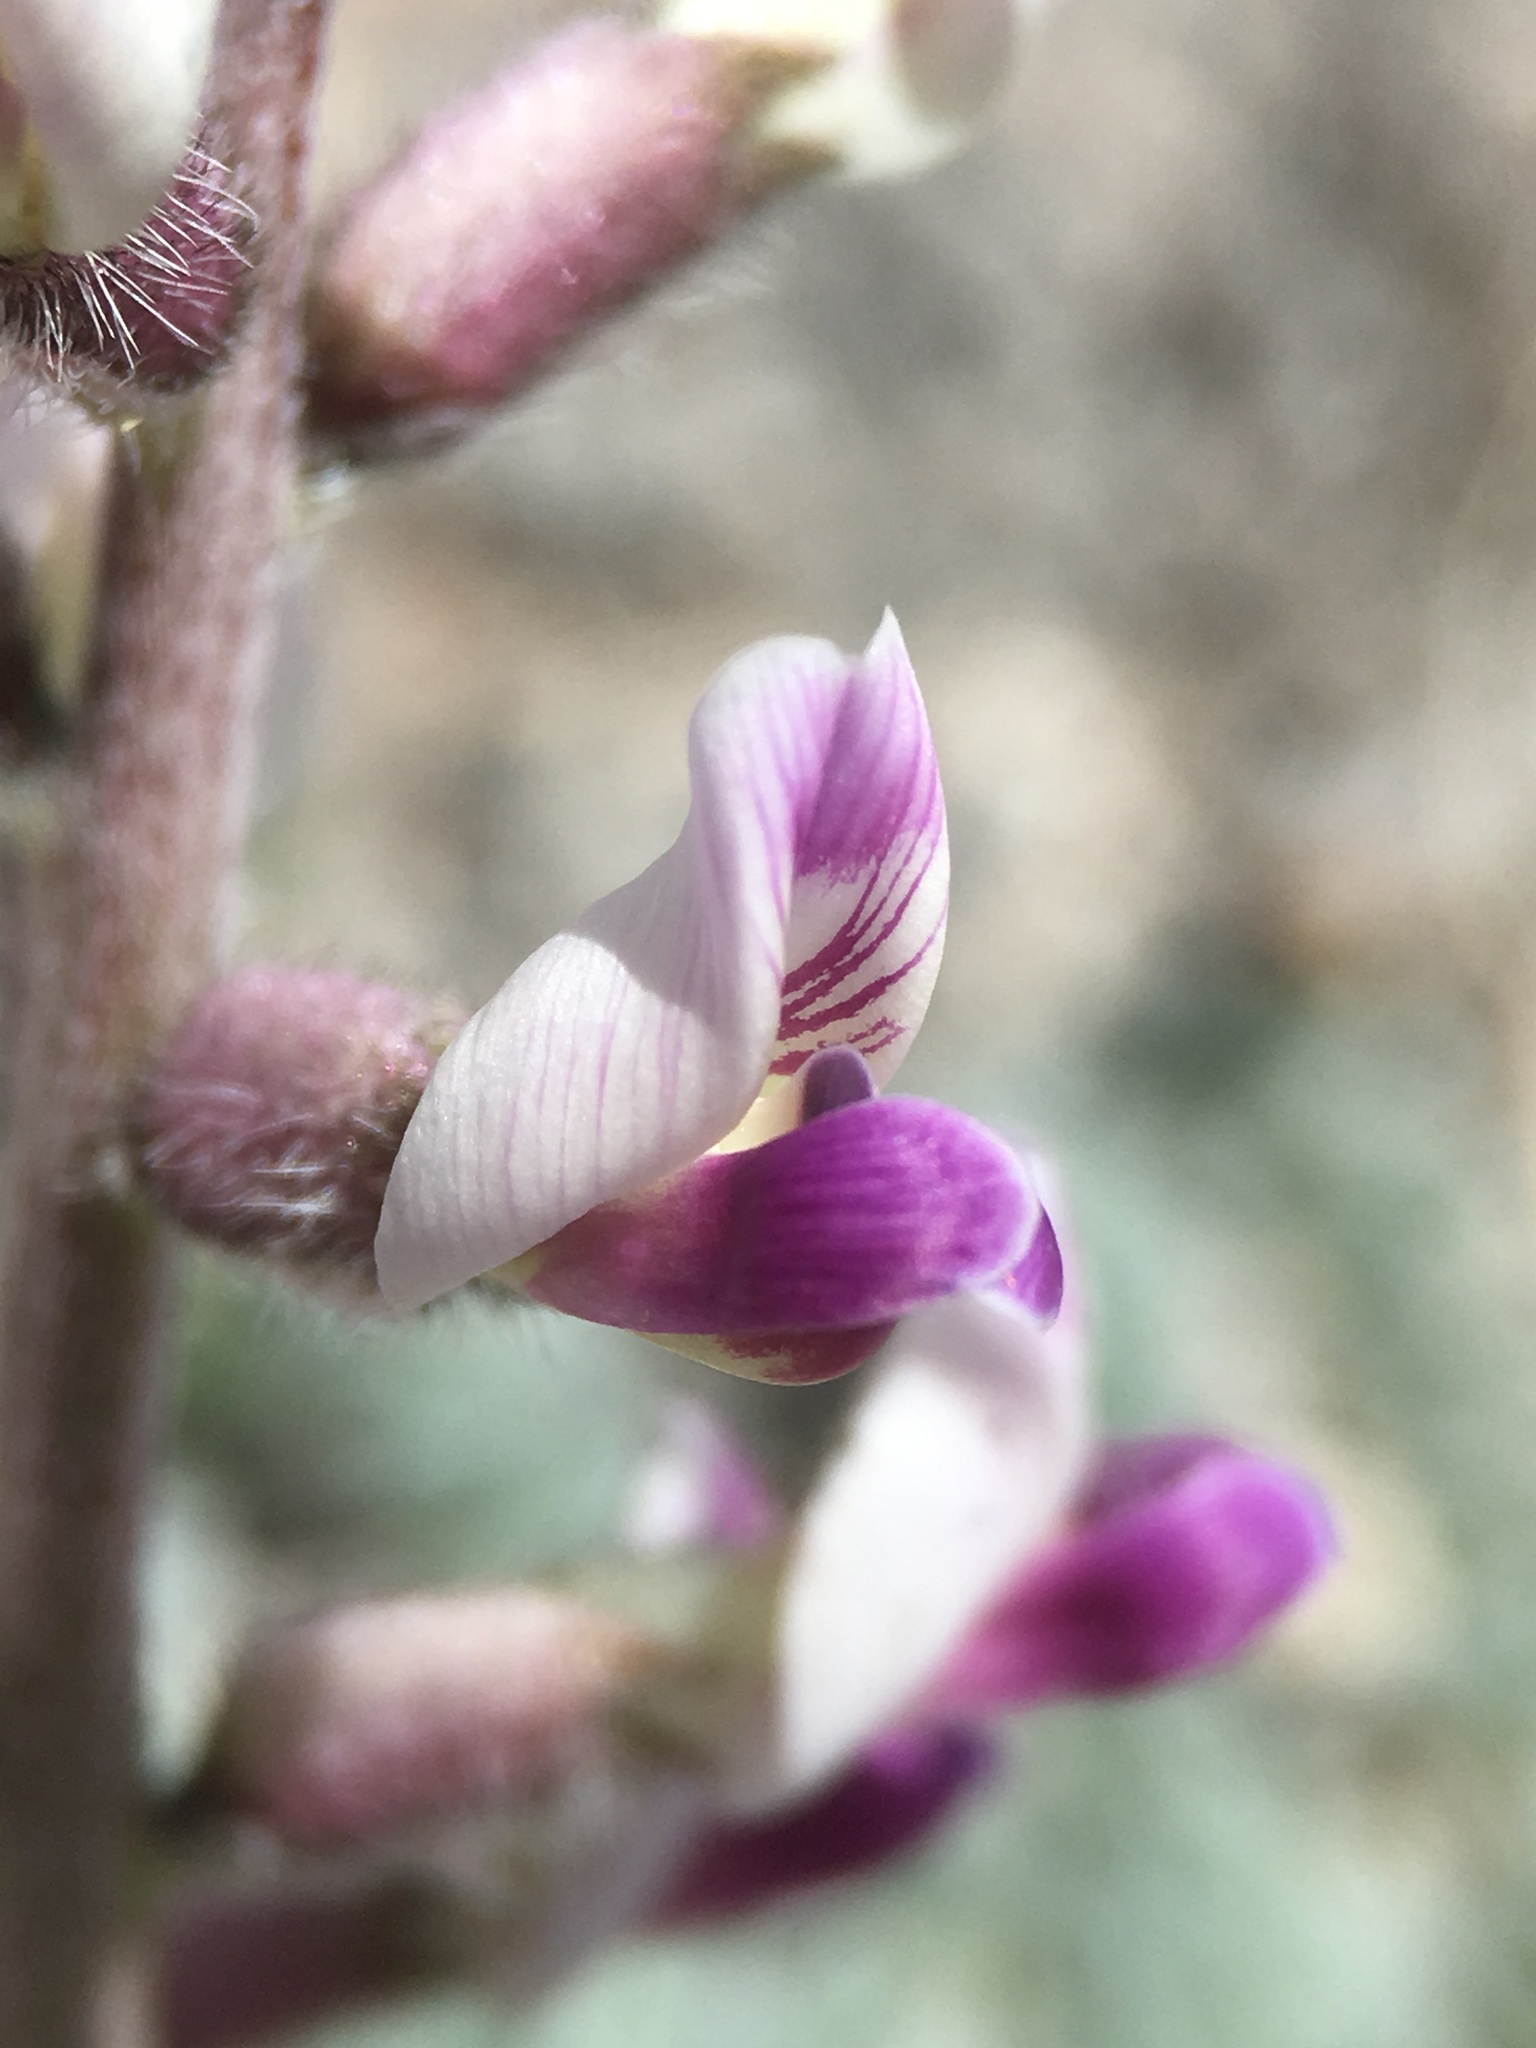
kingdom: Plantae
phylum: Tracheophyta
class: Magnoliopsida
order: Fabales
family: Fabaceae
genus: Astragalus
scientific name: Astragalus layneae
